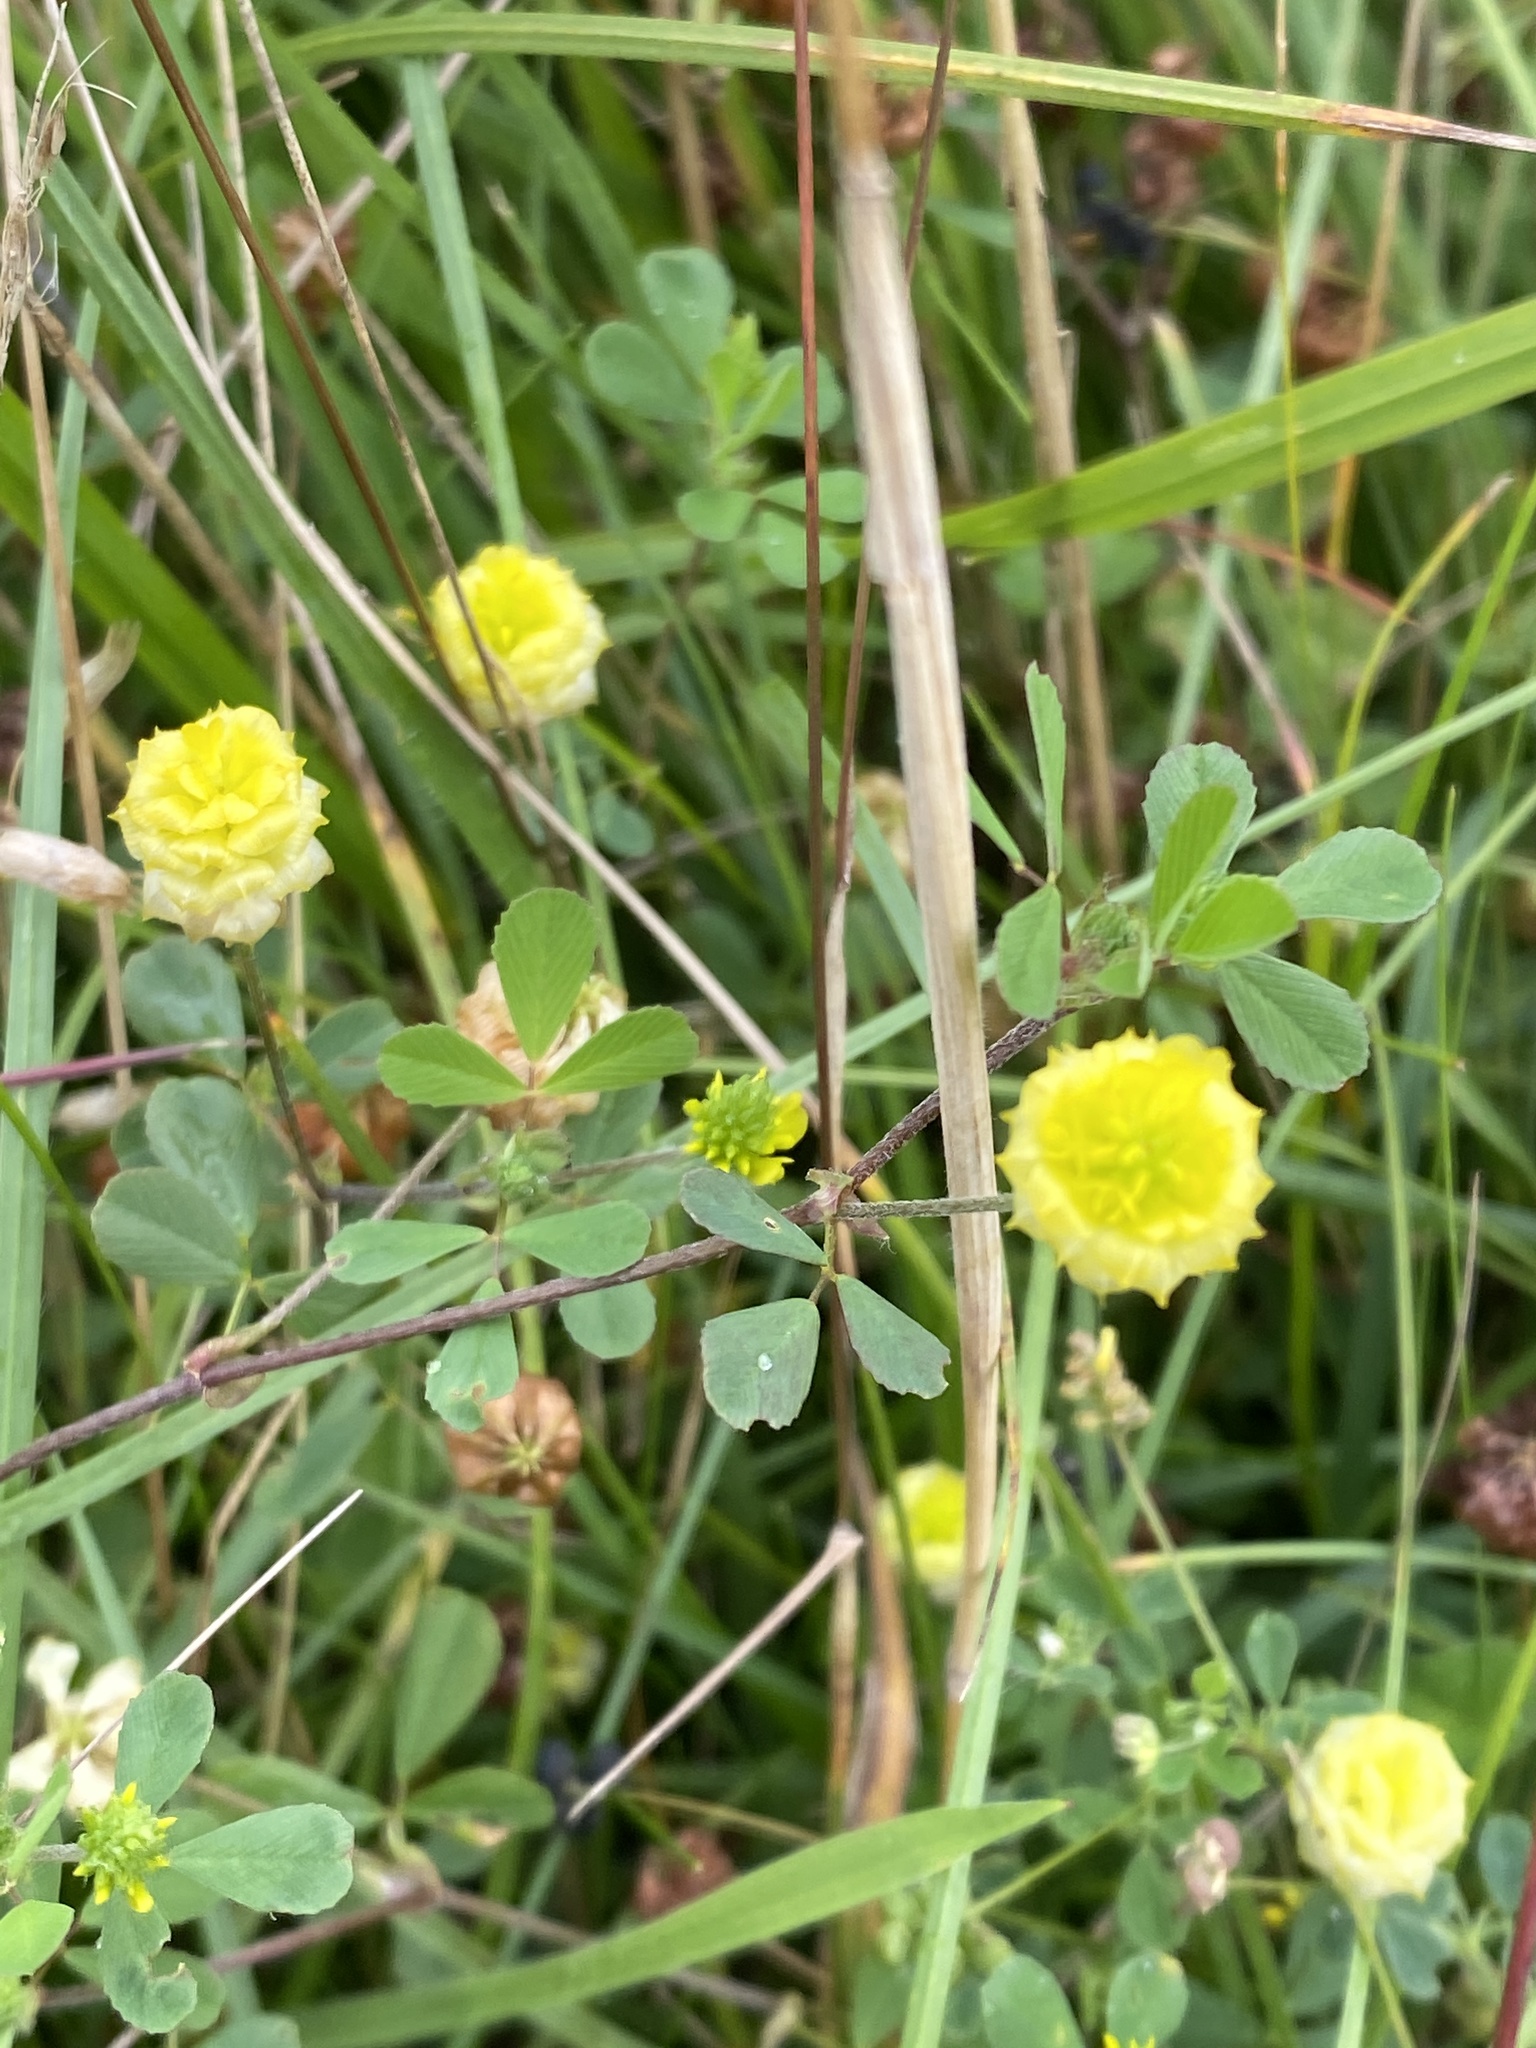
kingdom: Plantae
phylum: Tracheophyta
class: Magnoliopsida
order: Fabales
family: Fabaceae
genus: Trifolium
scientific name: Trifolium campestre
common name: Field clover
